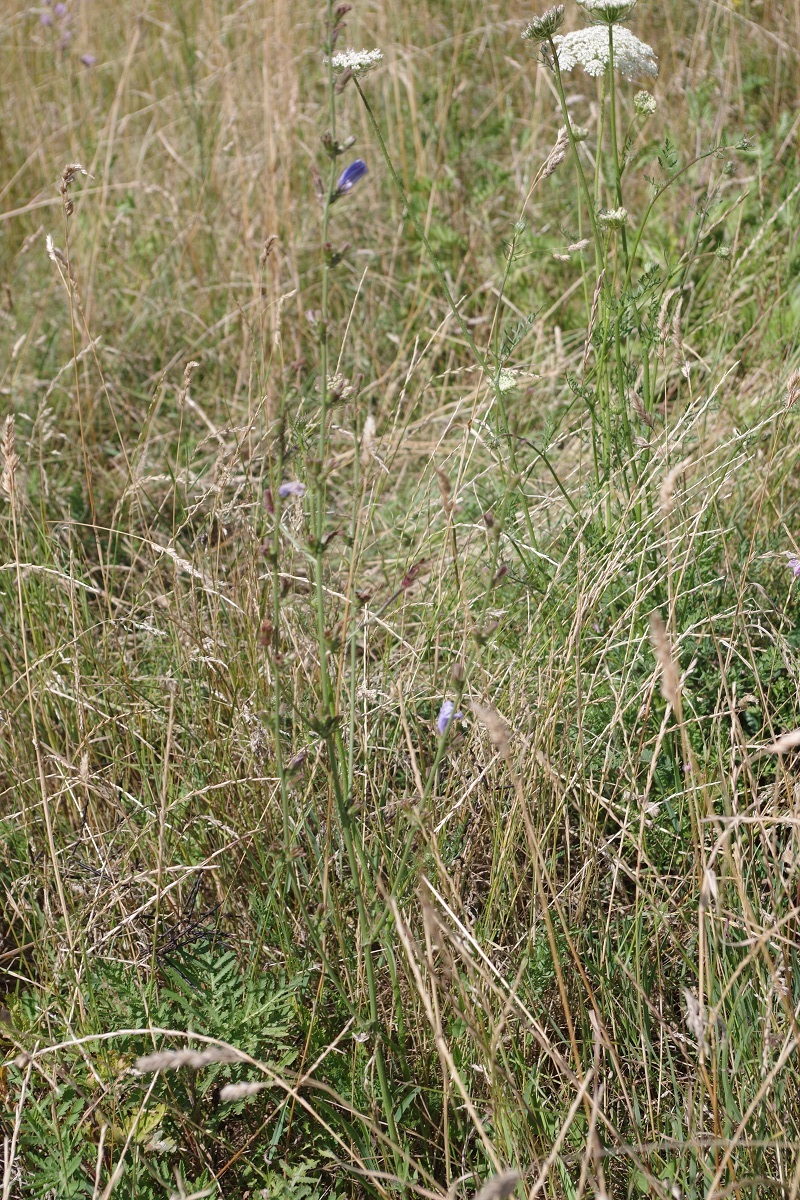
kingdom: Plantae
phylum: Tracheophyta
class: Magnoliopsida
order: Asterales
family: Asteraceae
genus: Cichorium
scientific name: Cichorium intybus
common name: Chicory
